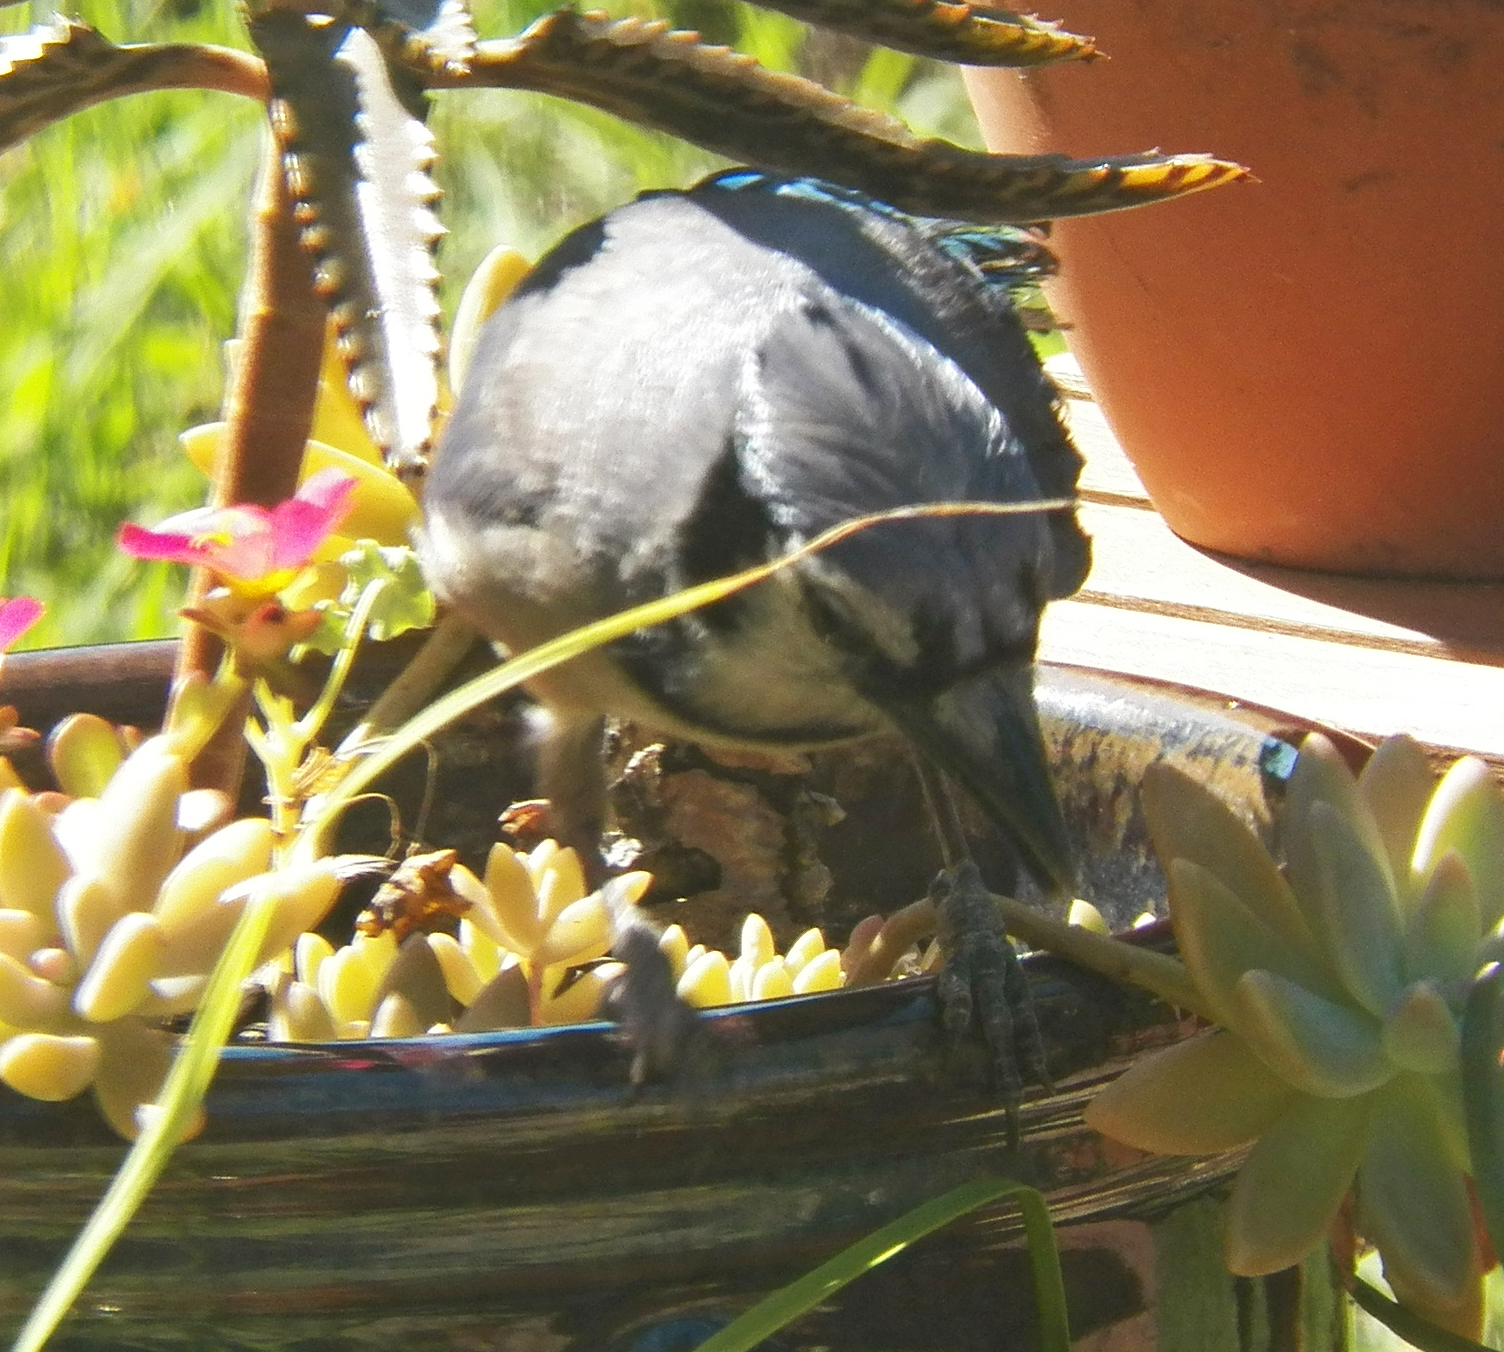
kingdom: Animalia
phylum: Chordata
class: Aves
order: Passeriformes
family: Corvidae
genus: Cyanocitta
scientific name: Cyanocitta cristata
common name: Blue jay
